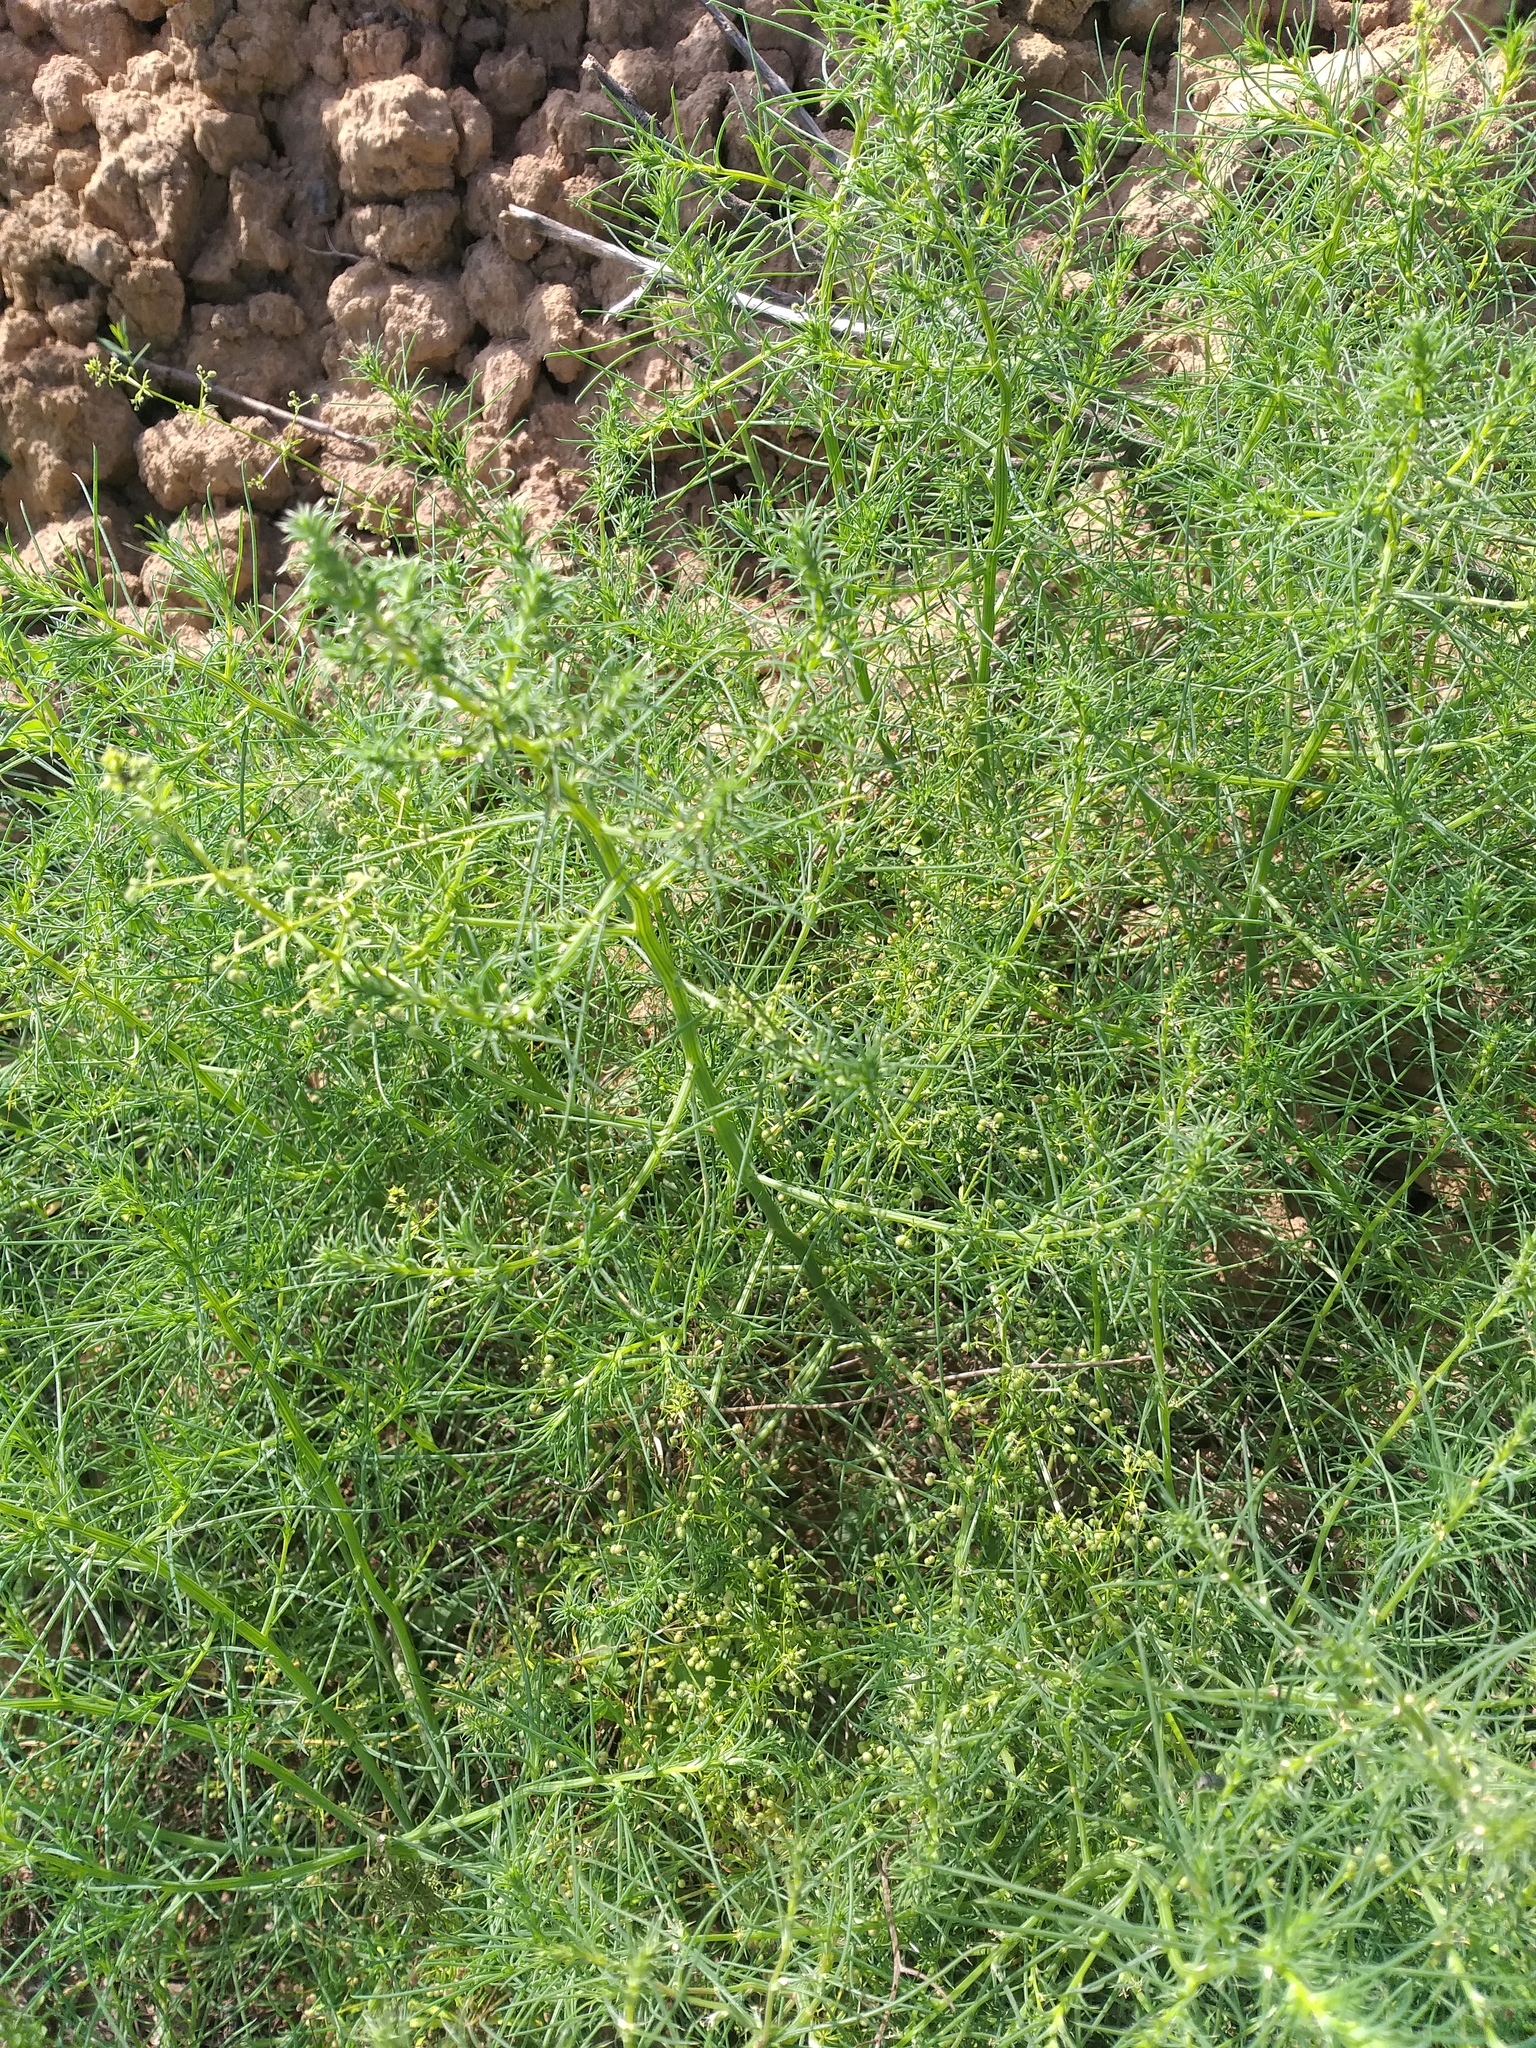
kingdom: Plantae
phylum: Tracheophyta
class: Magnoliopsida
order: Caryophyllales
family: Amaranthaceae
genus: Salsola
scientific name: Salsola tragus
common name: Prickly russian thistle
